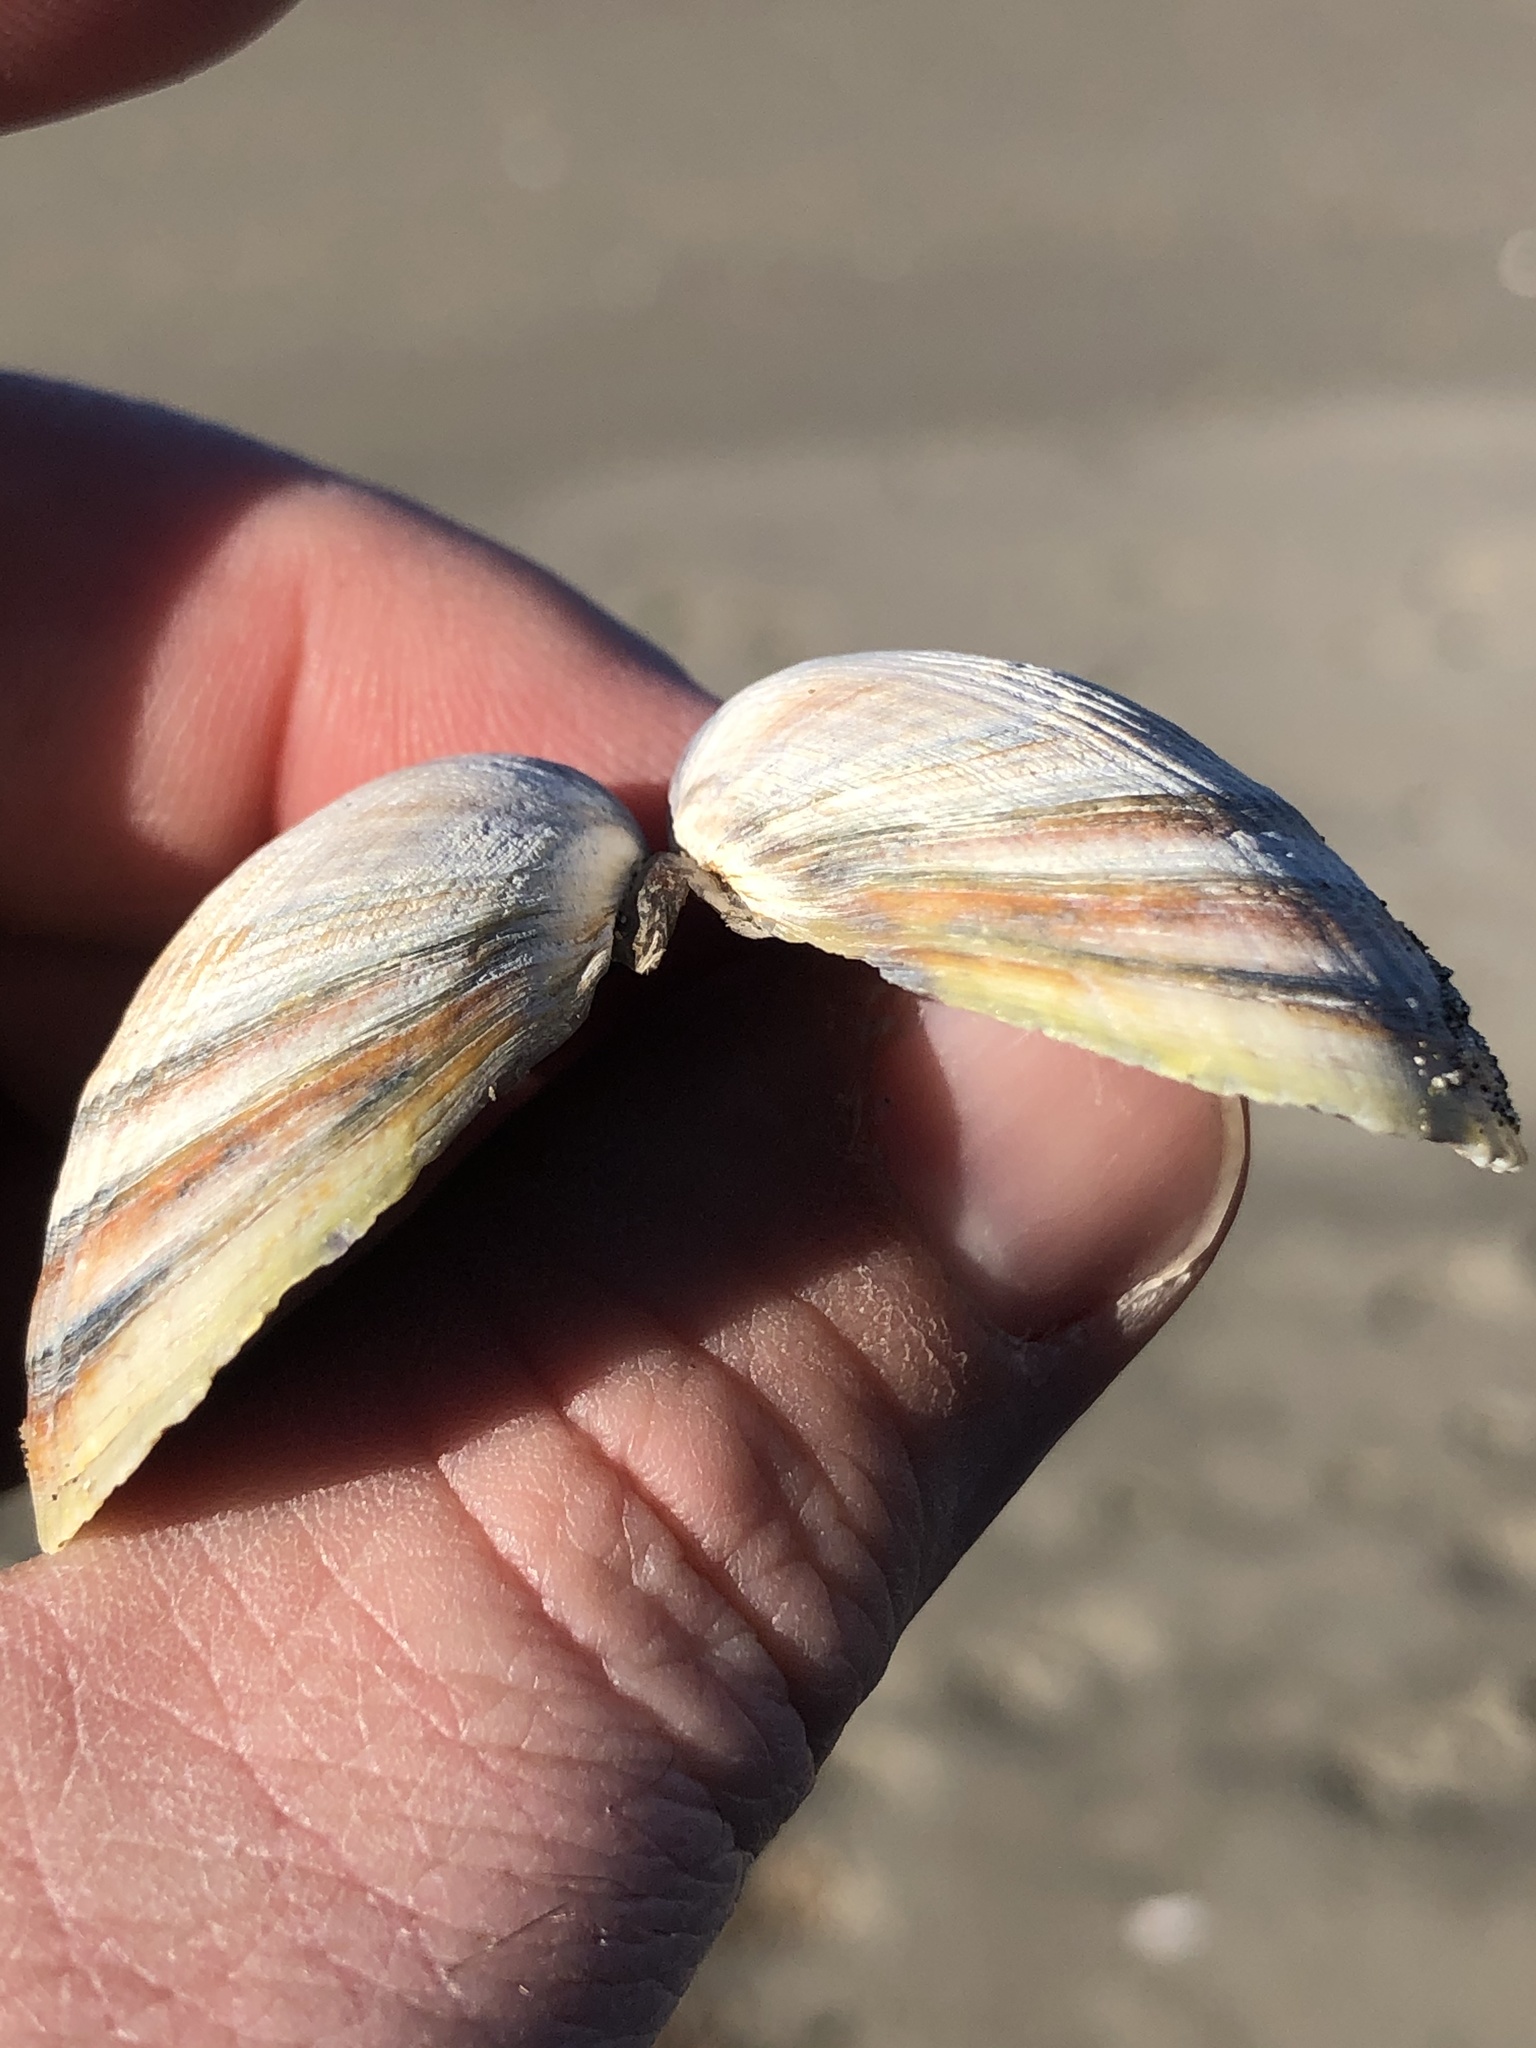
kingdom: Animalia
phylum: Mollusca
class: Bivalvia
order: Venerida
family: Veneridae
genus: Austrovenus
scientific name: Austrovenus stutchburyi
